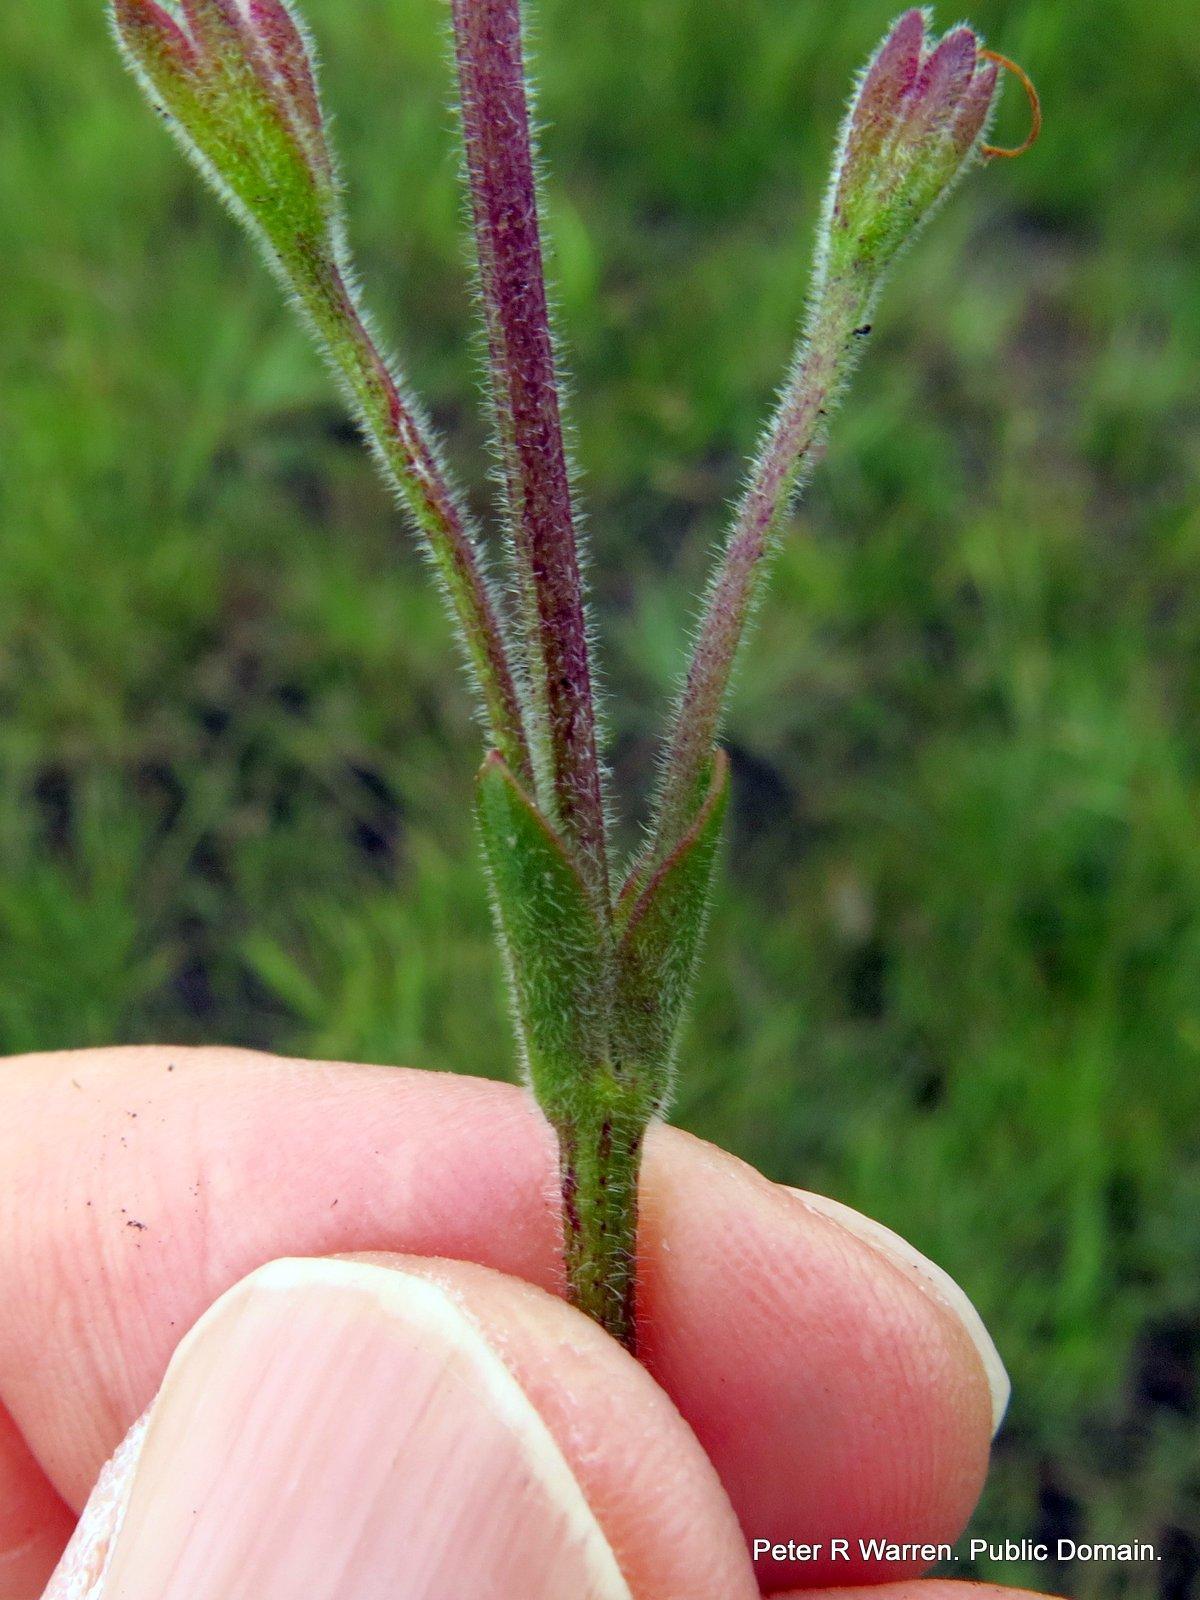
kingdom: Plantae
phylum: Tracheophyta
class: Magnoliopsida
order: Lamiales
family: Linderniaceae
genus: Craterostigma
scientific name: Craterostigma wilmsii
